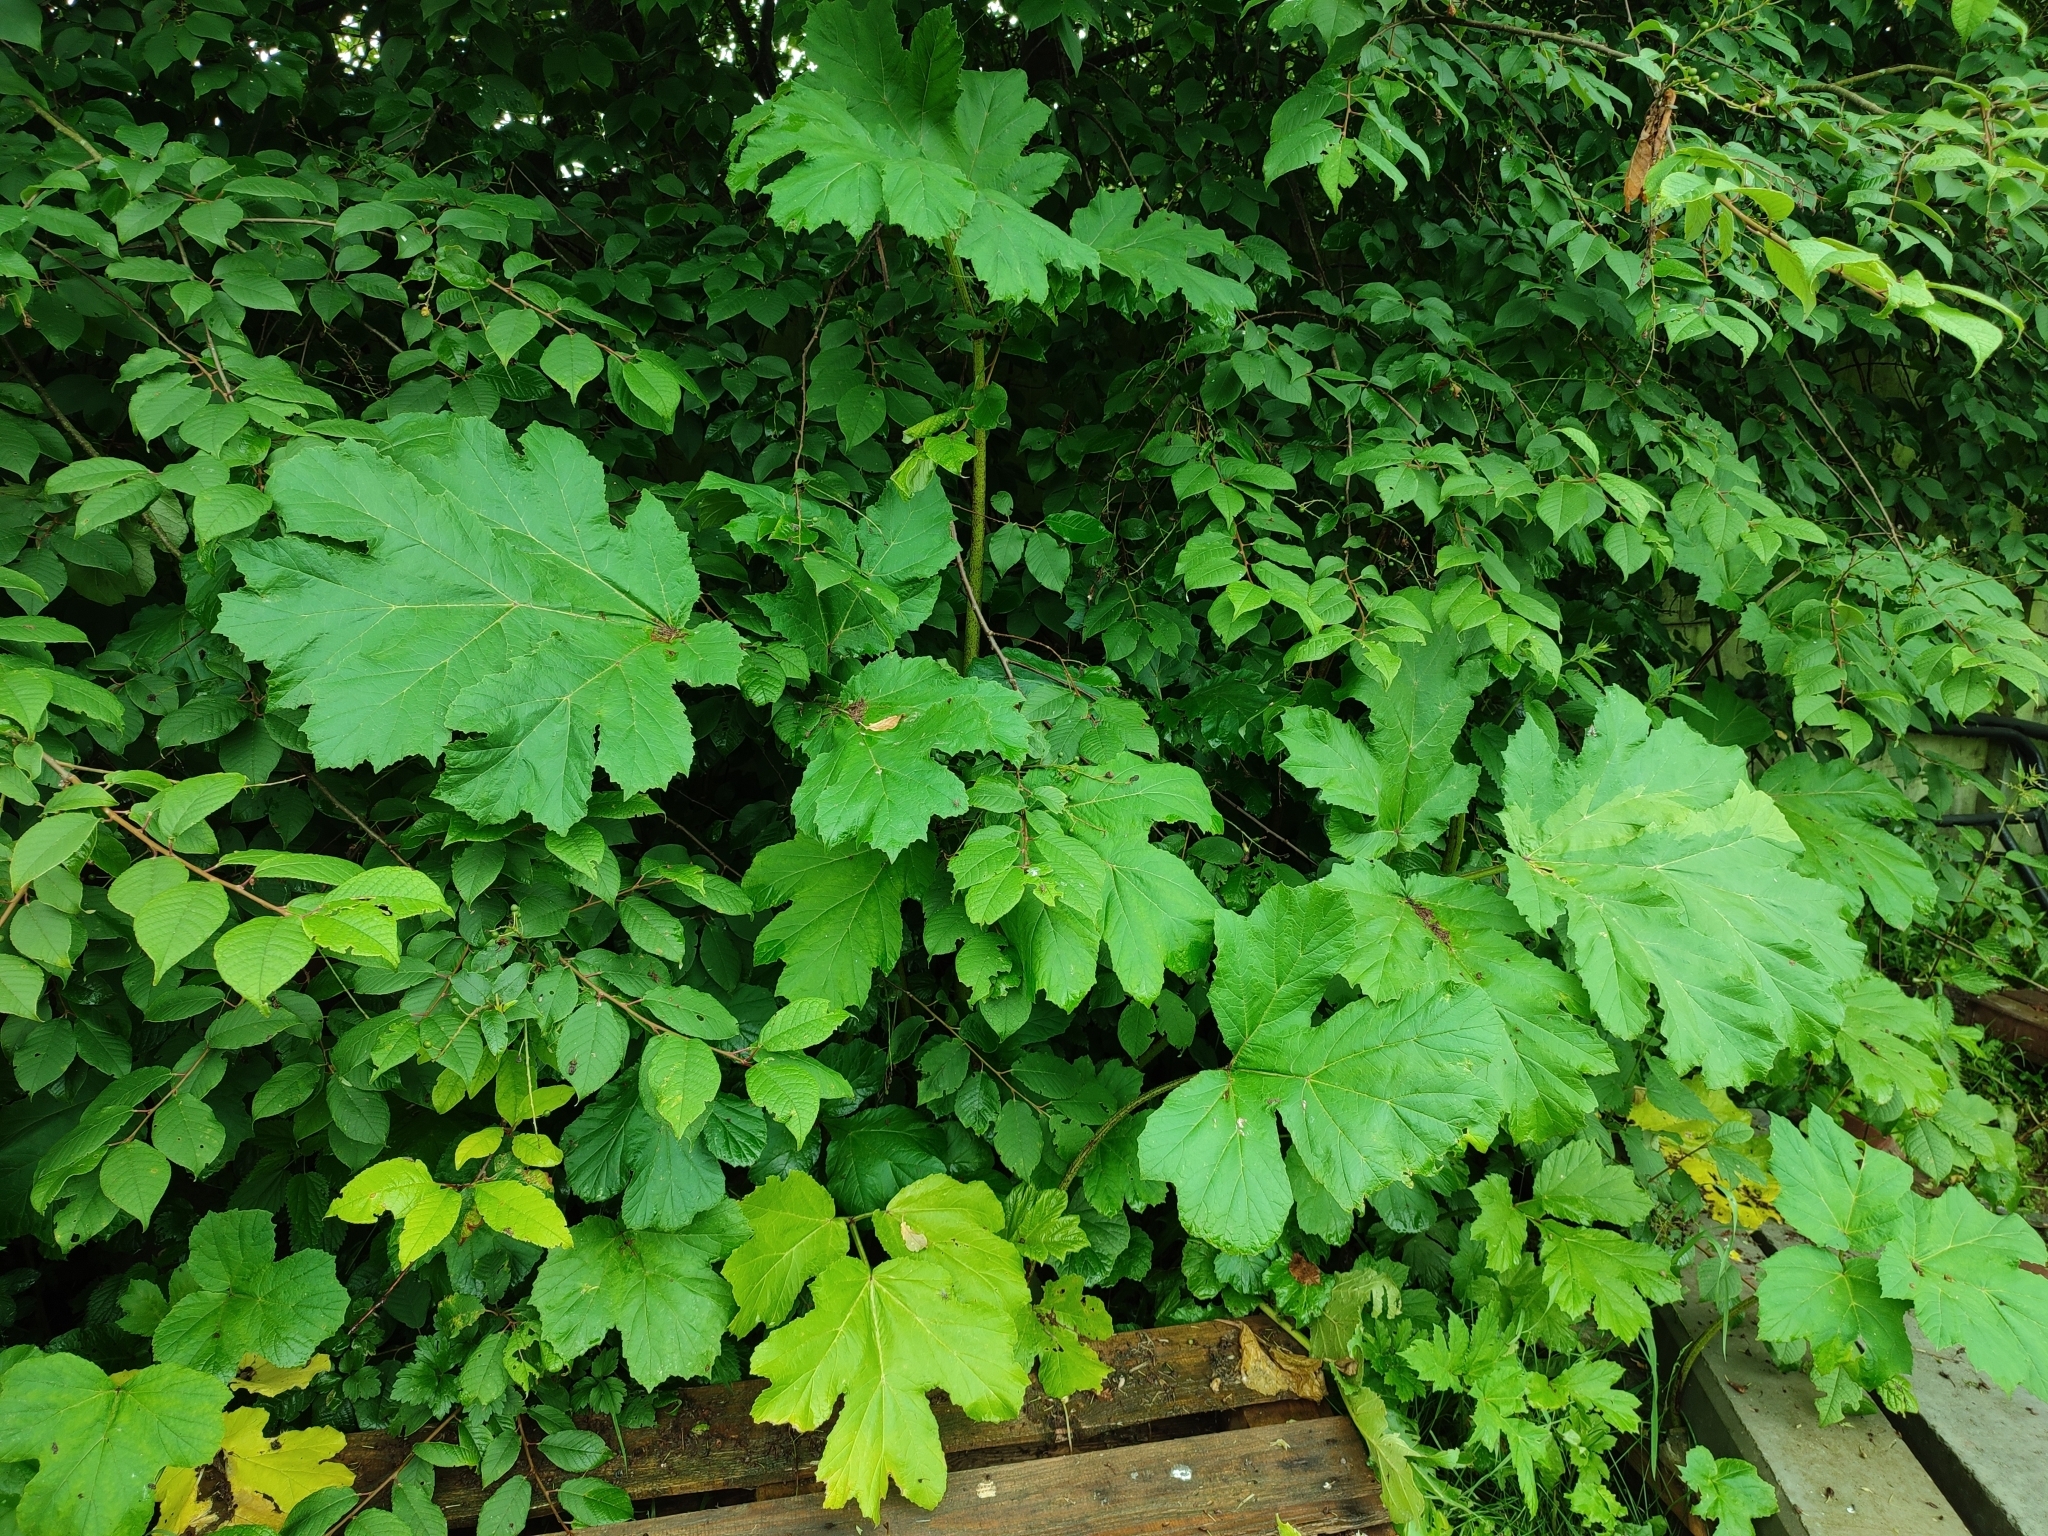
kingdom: Plantae
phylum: Tracheophyta
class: Magnoliopsida
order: Apiales
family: Apiaceae
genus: Heracleum
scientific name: Heracleum sosnowskyi
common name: Sosnowsky's hogweed
